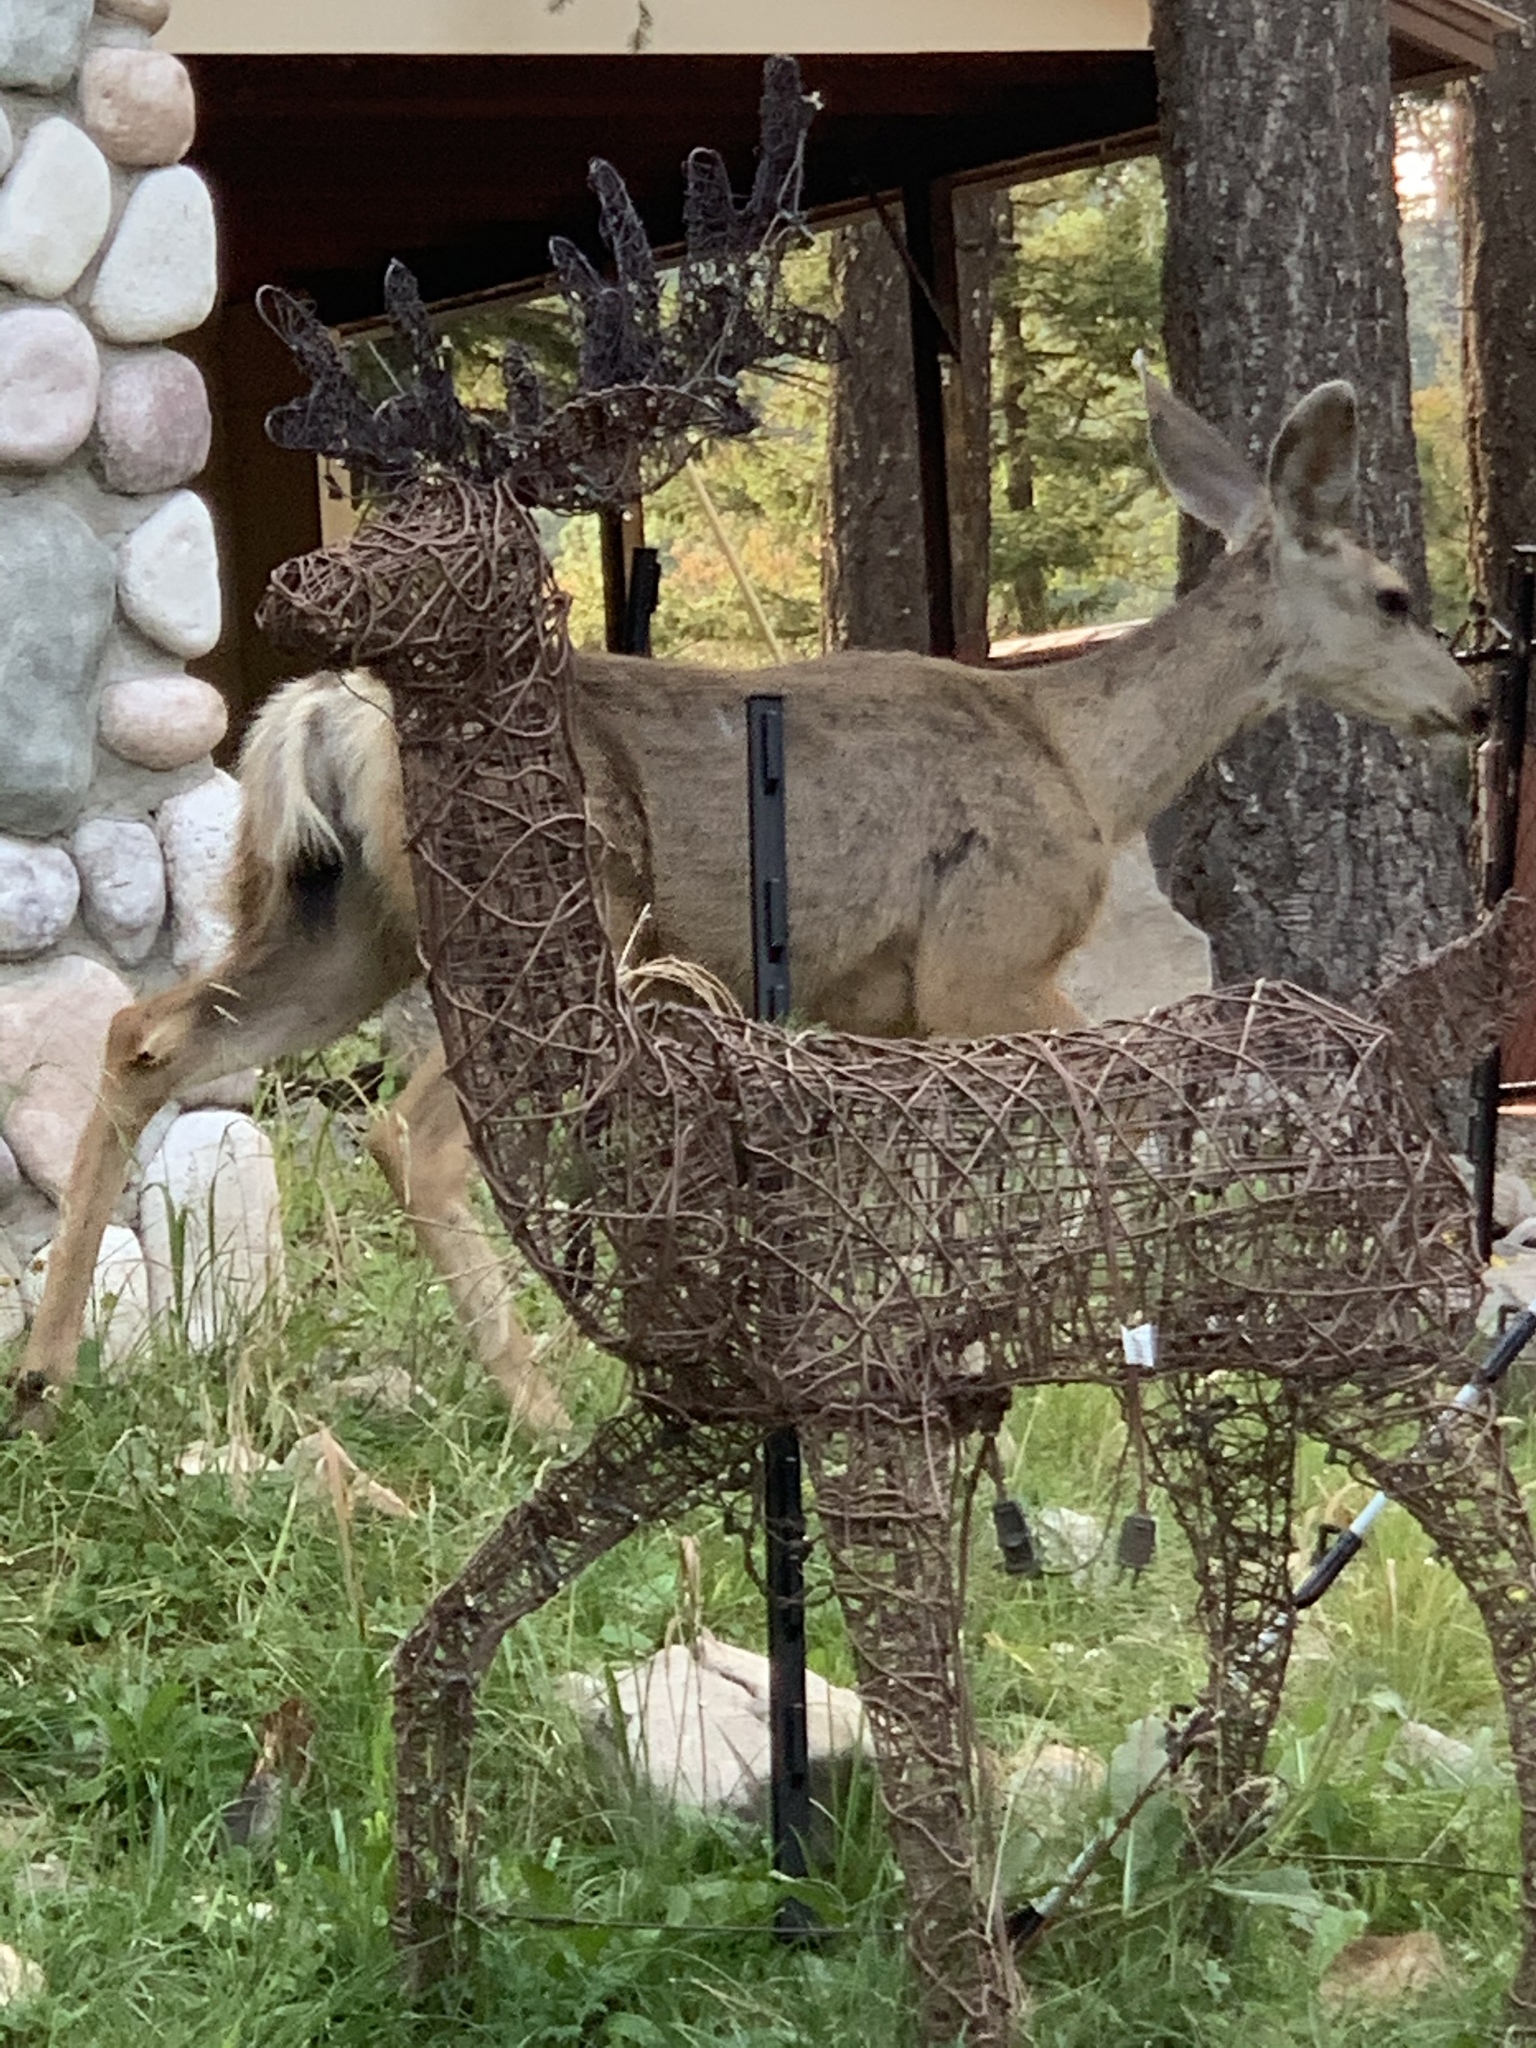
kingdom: Animalia
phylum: Chordata
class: Mammalia
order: Artiodactyla
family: Cervidae
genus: Odocoileus
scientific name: Odocoileus hemionus
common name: Mule deer
